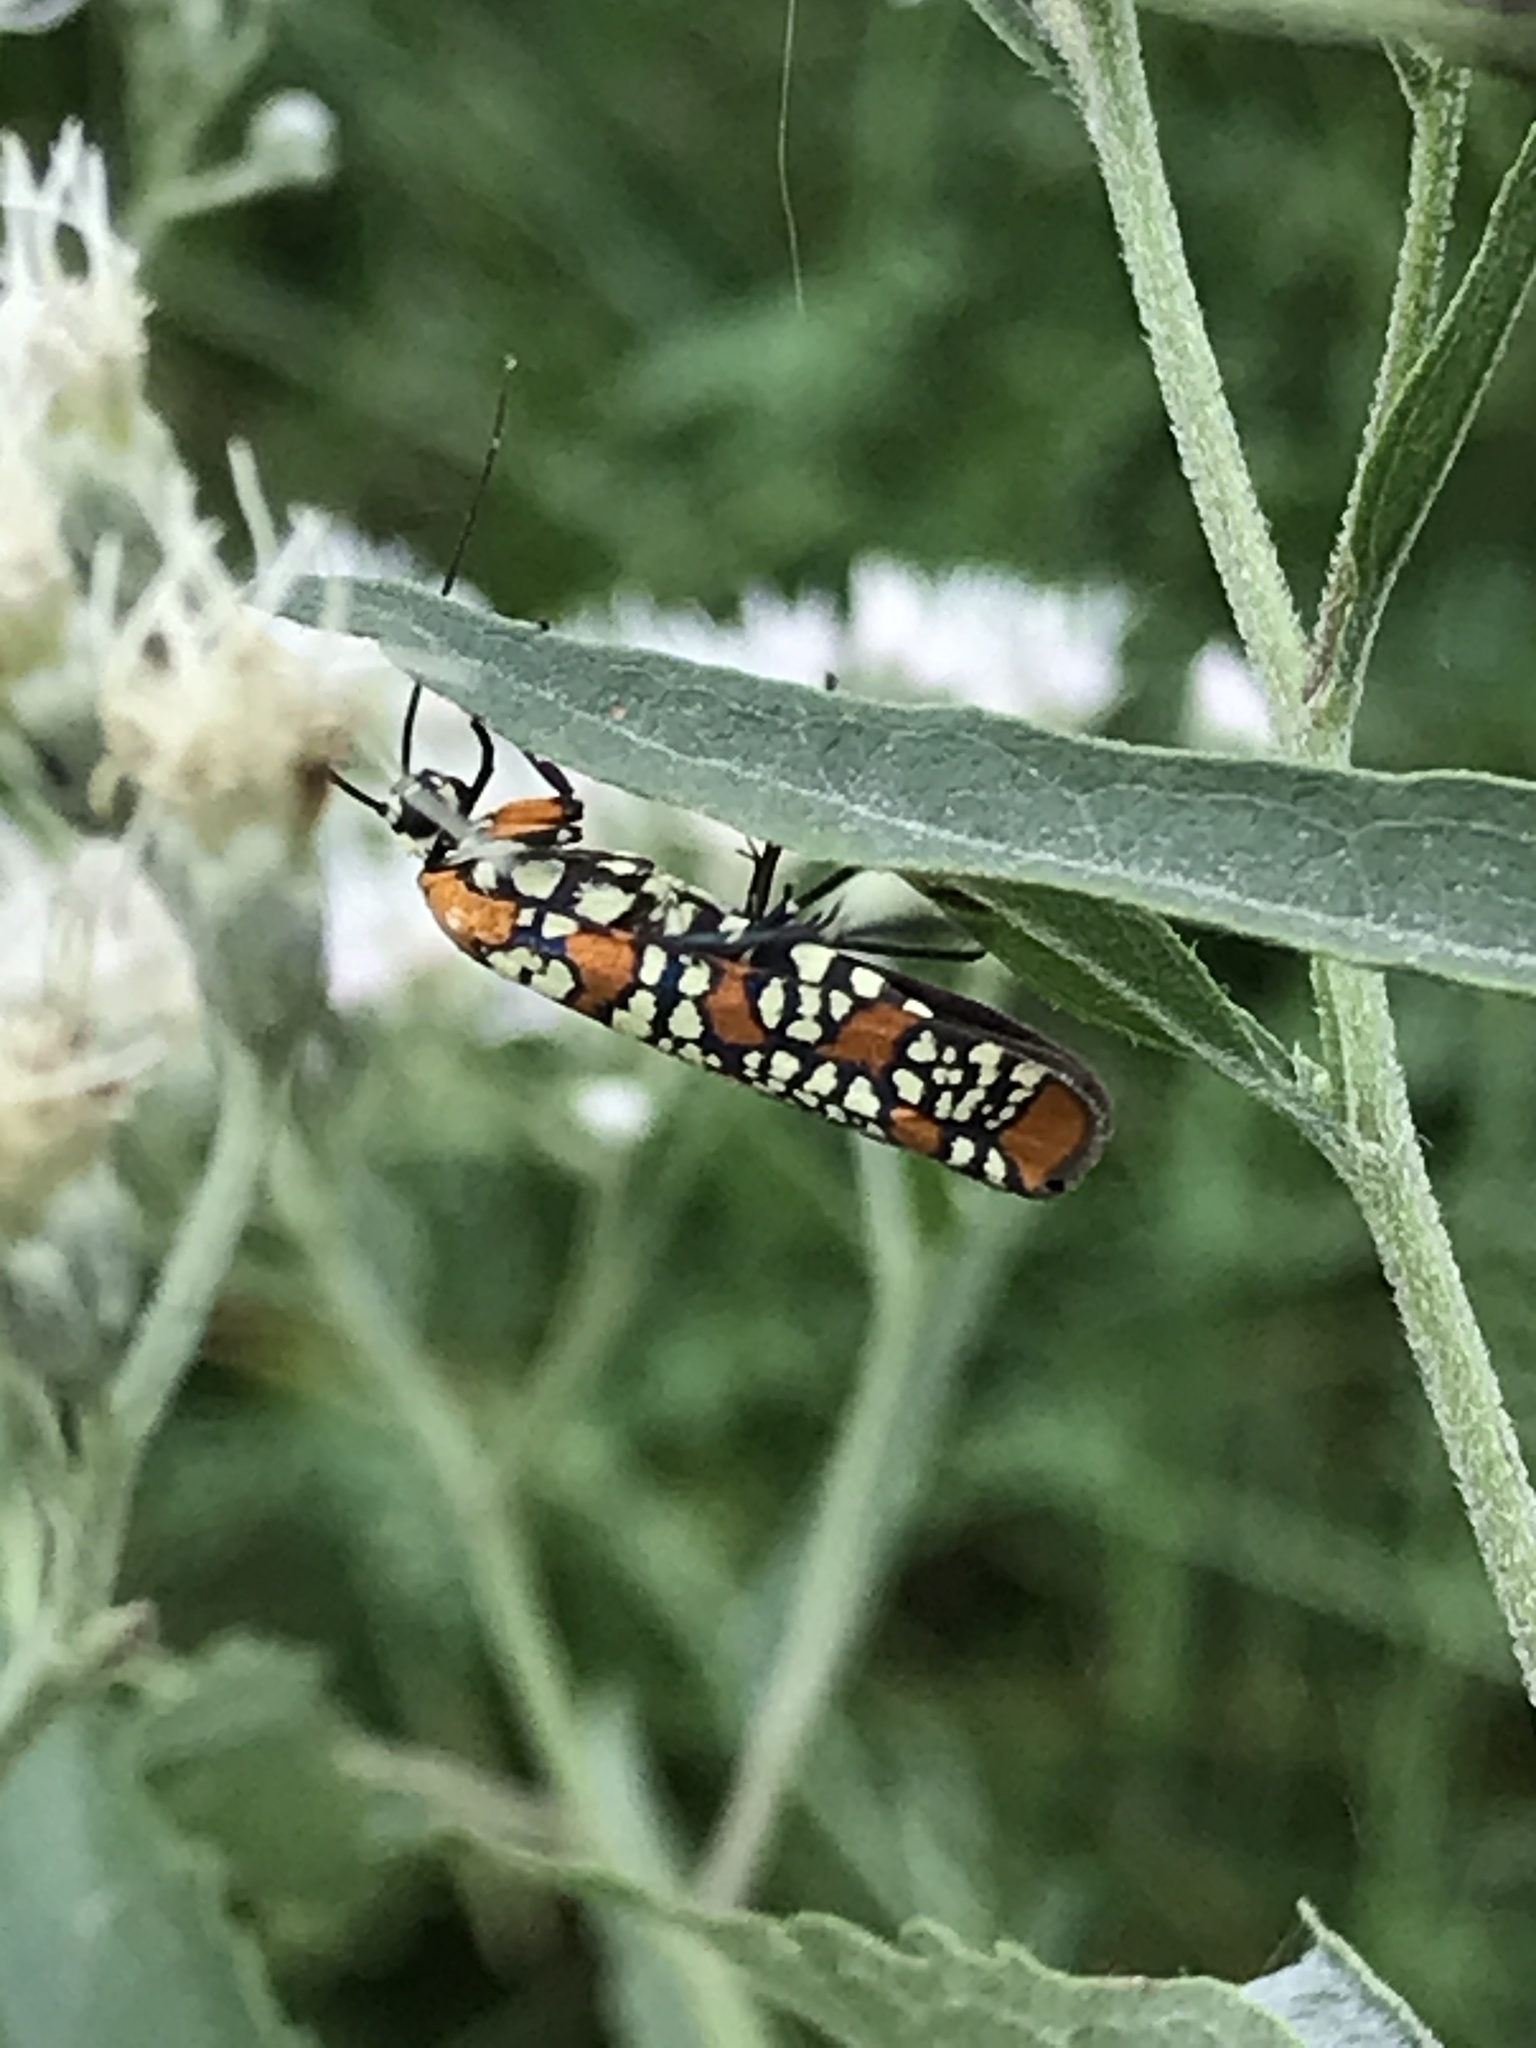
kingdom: Animalia
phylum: Arthropoda
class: Insecta
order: Lepidoptera
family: Attevidae
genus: Atteva
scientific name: Atteva punctella
